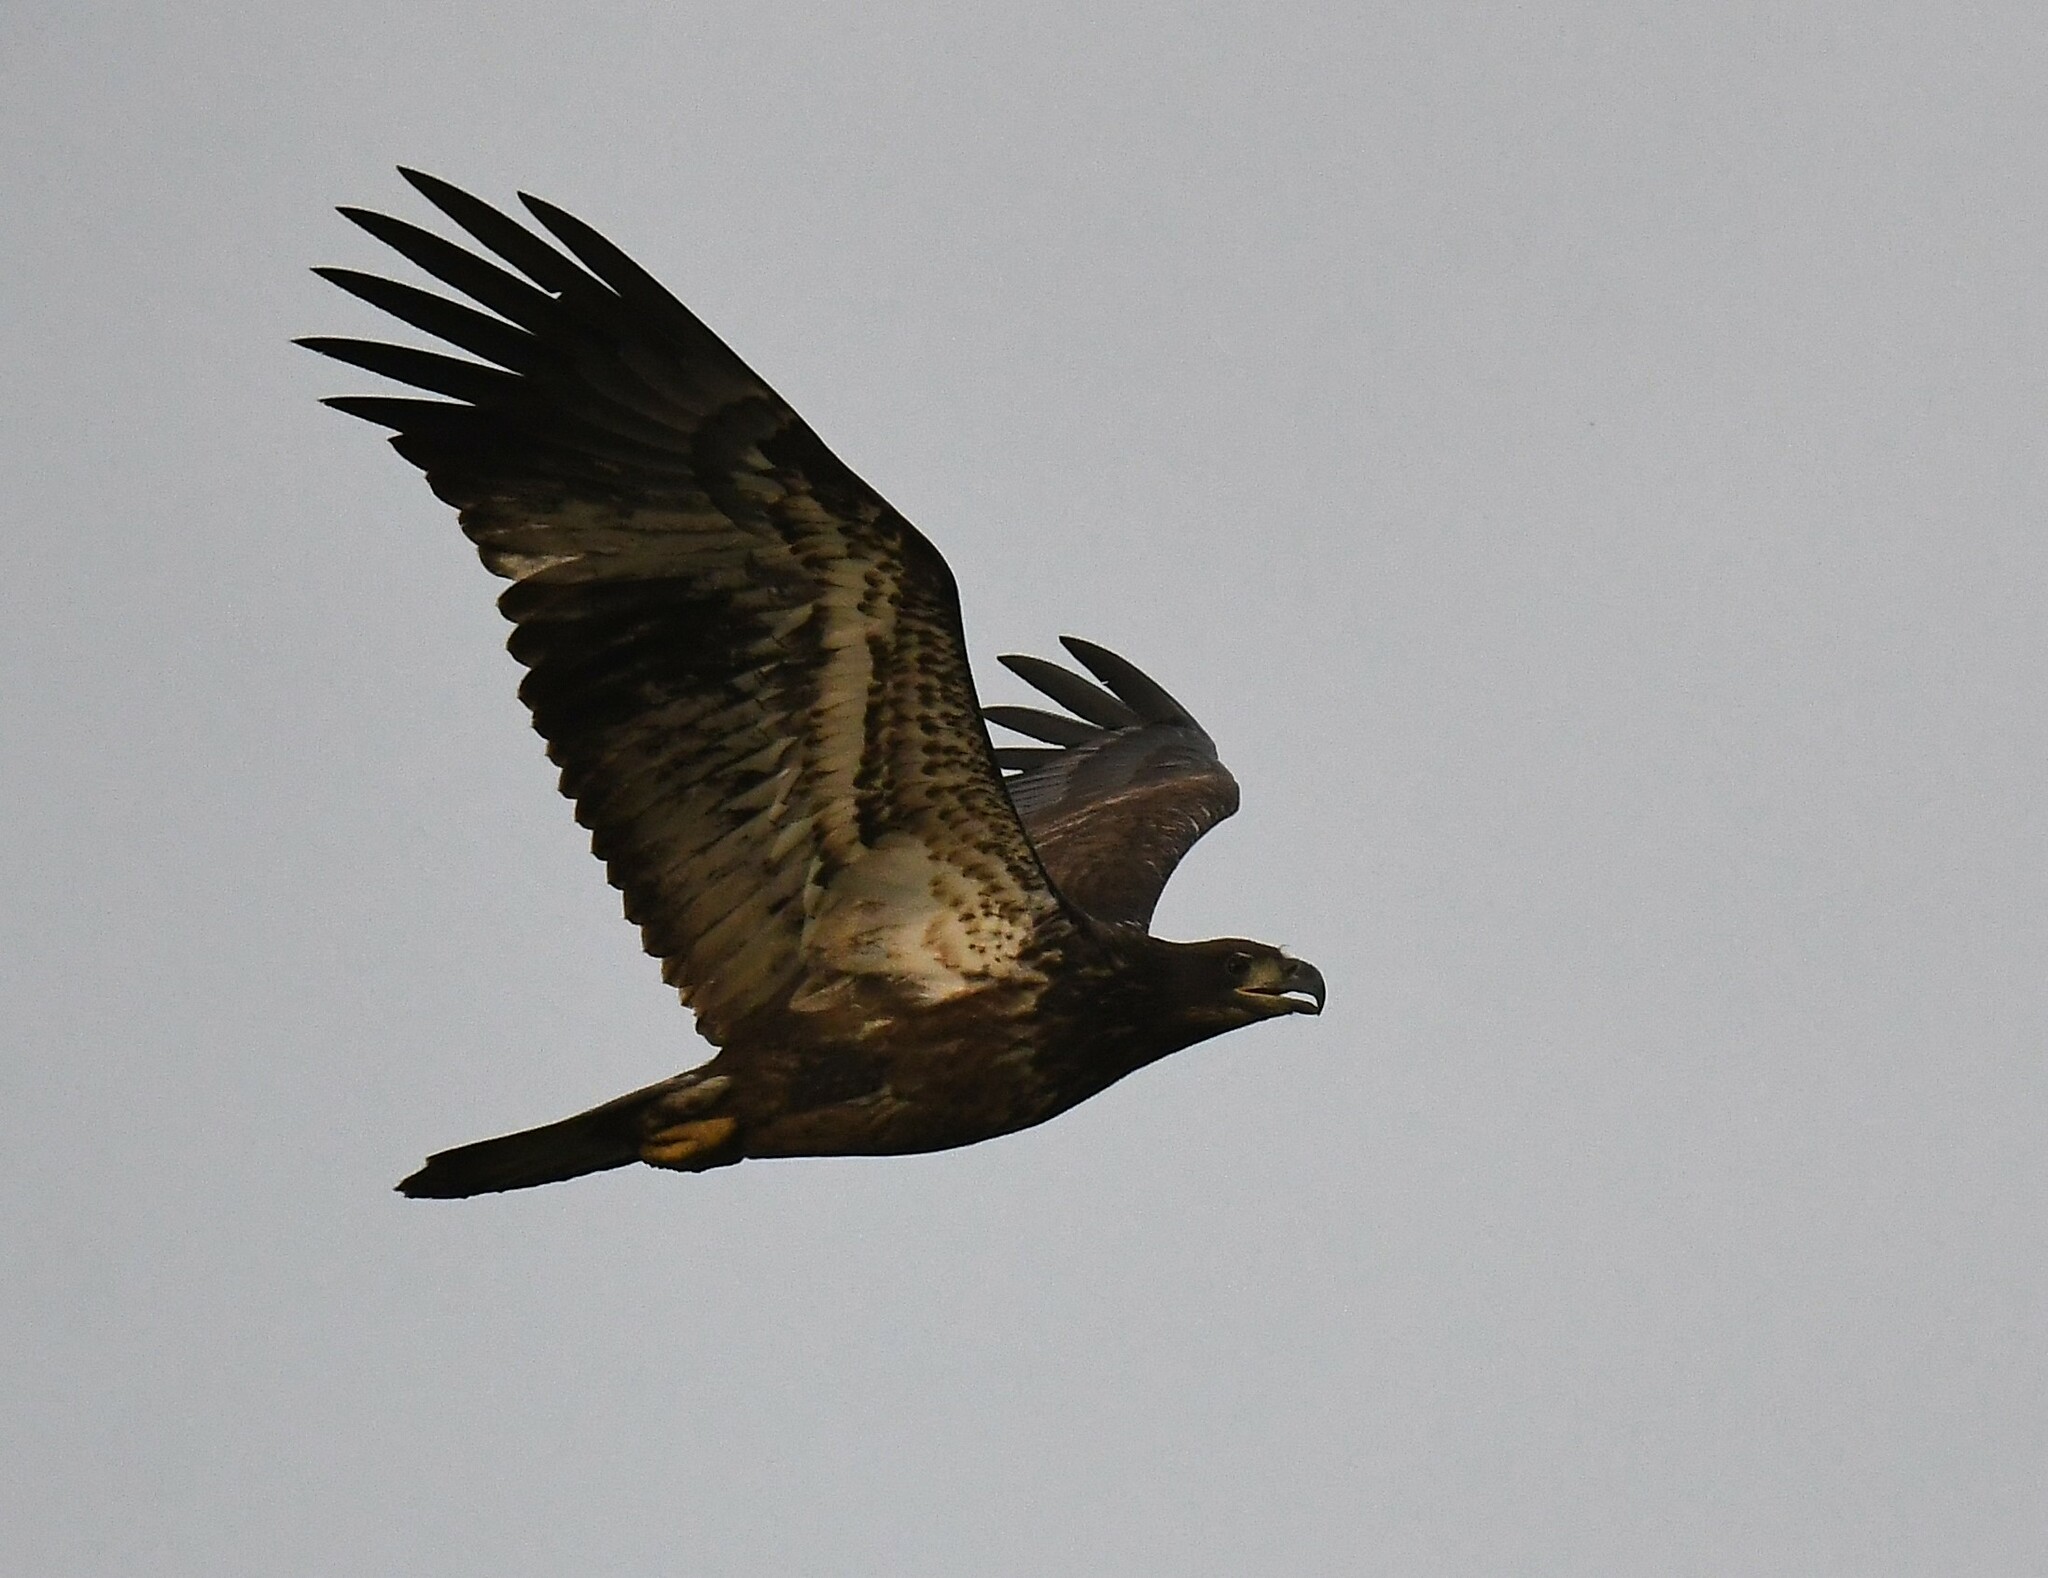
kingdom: Animalia
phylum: Chordata
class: Aves
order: Accipitriformes
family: Accipitridae
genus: Haliaeetus
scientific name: Haliaeetus leucocephalus
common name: Bald eagle
